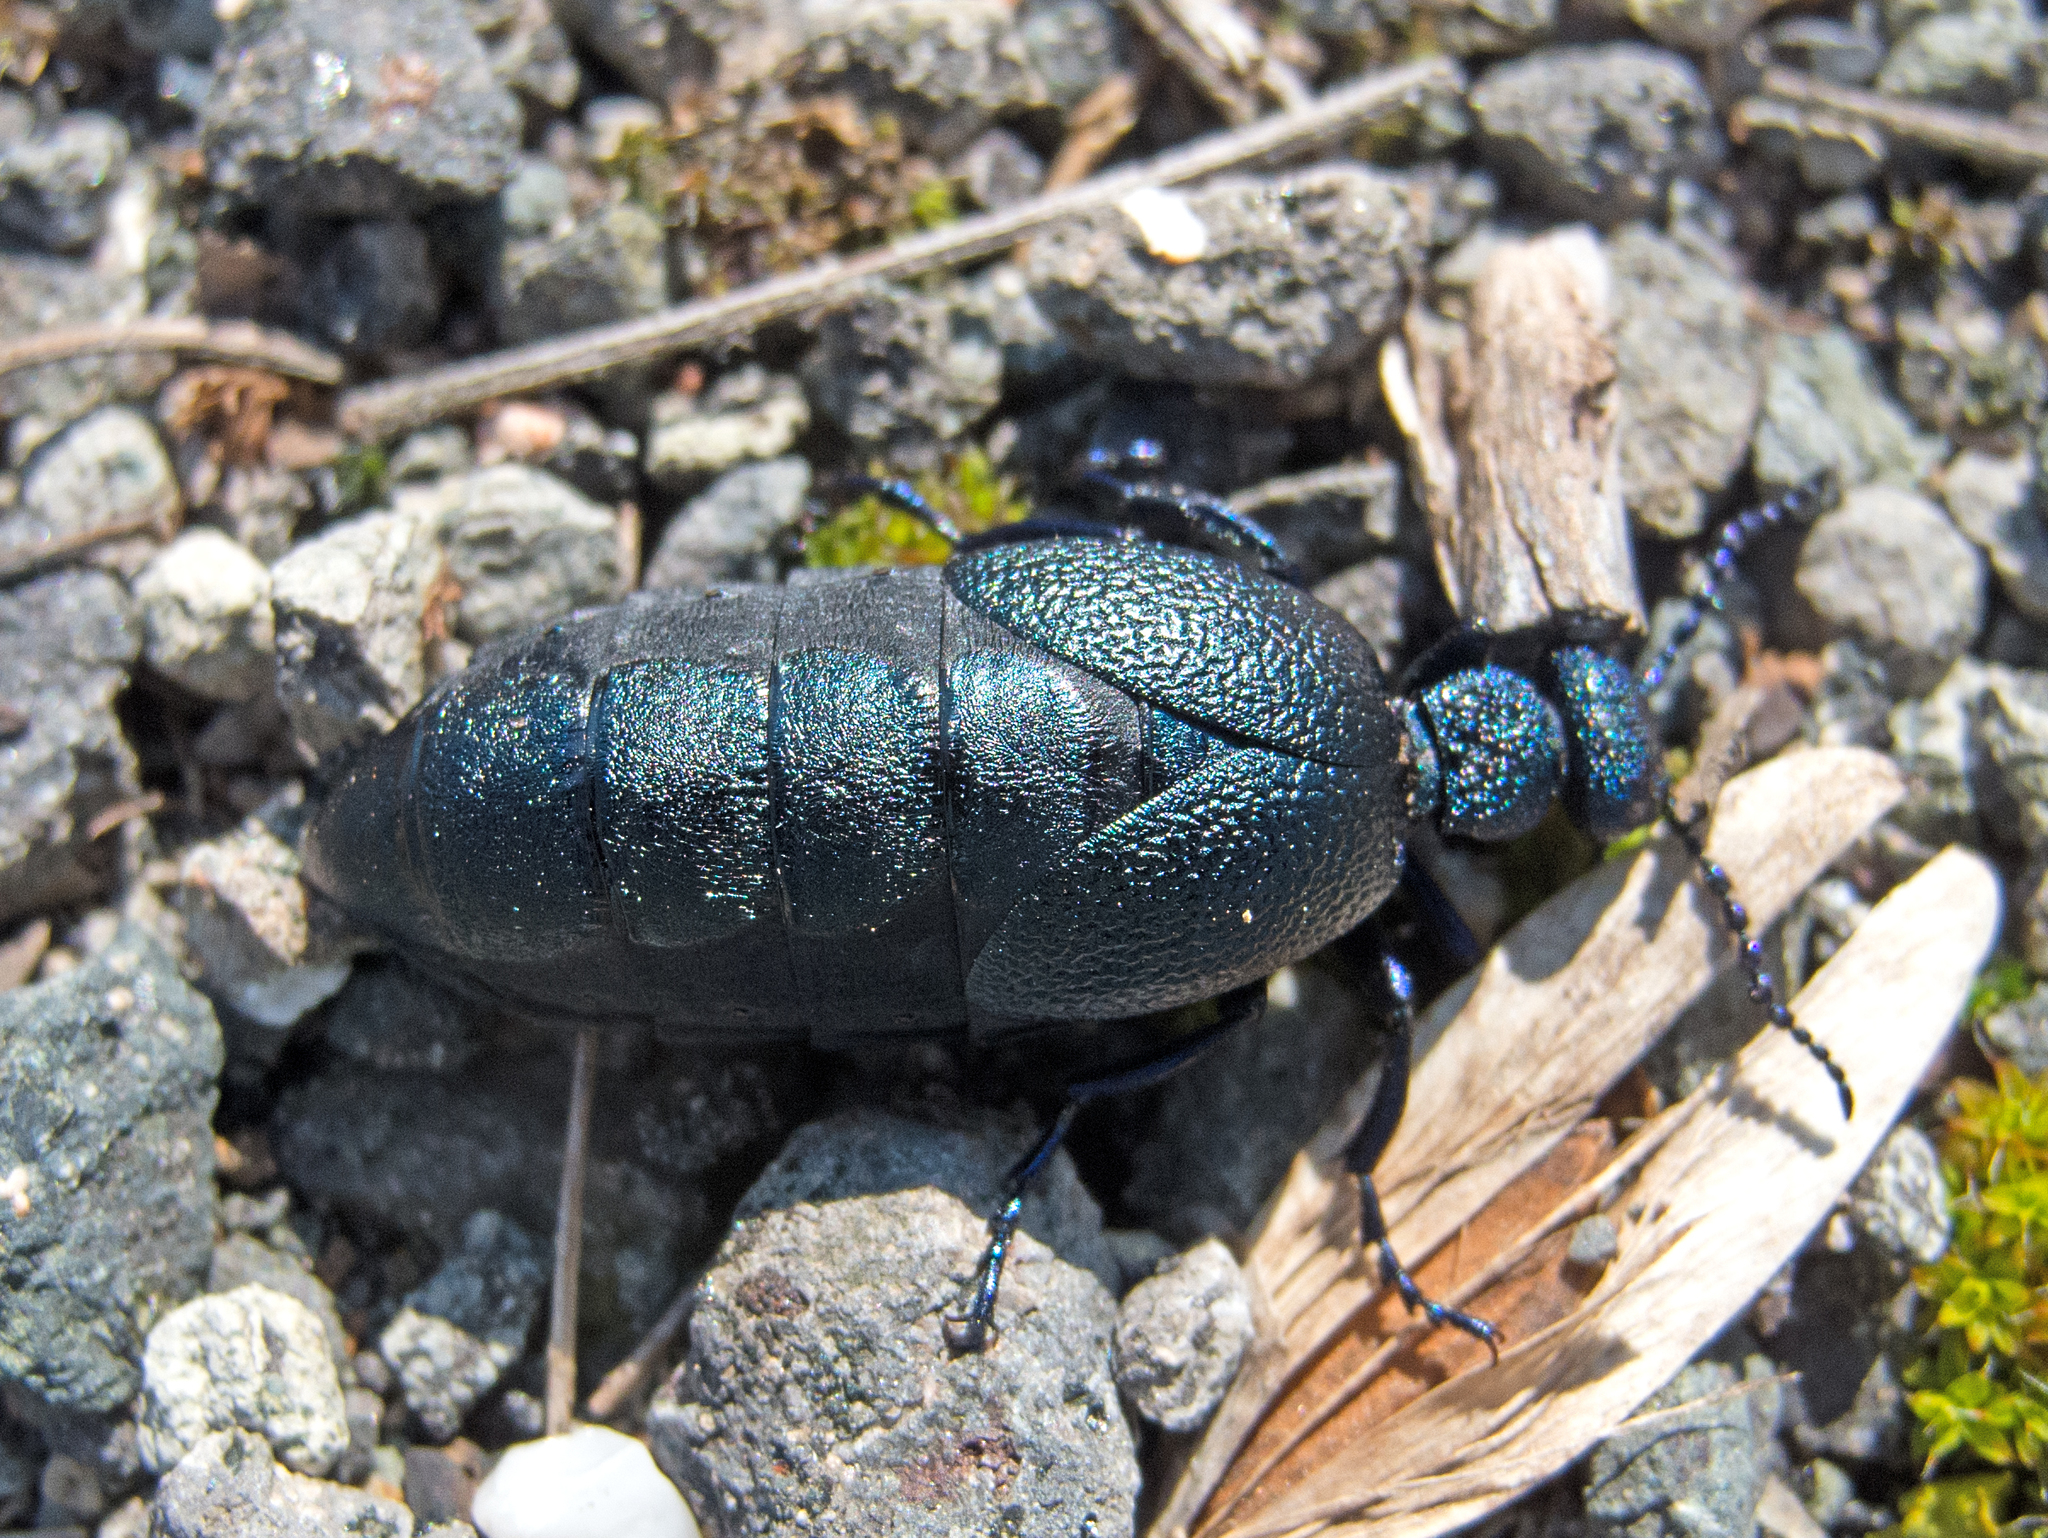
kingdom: Animalia
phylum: Arthropoda
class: Insecta
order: Coleoptera
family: Meloidae
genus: Meloe
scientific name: Meloe proscarabaeus
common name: Black oil-beetle
